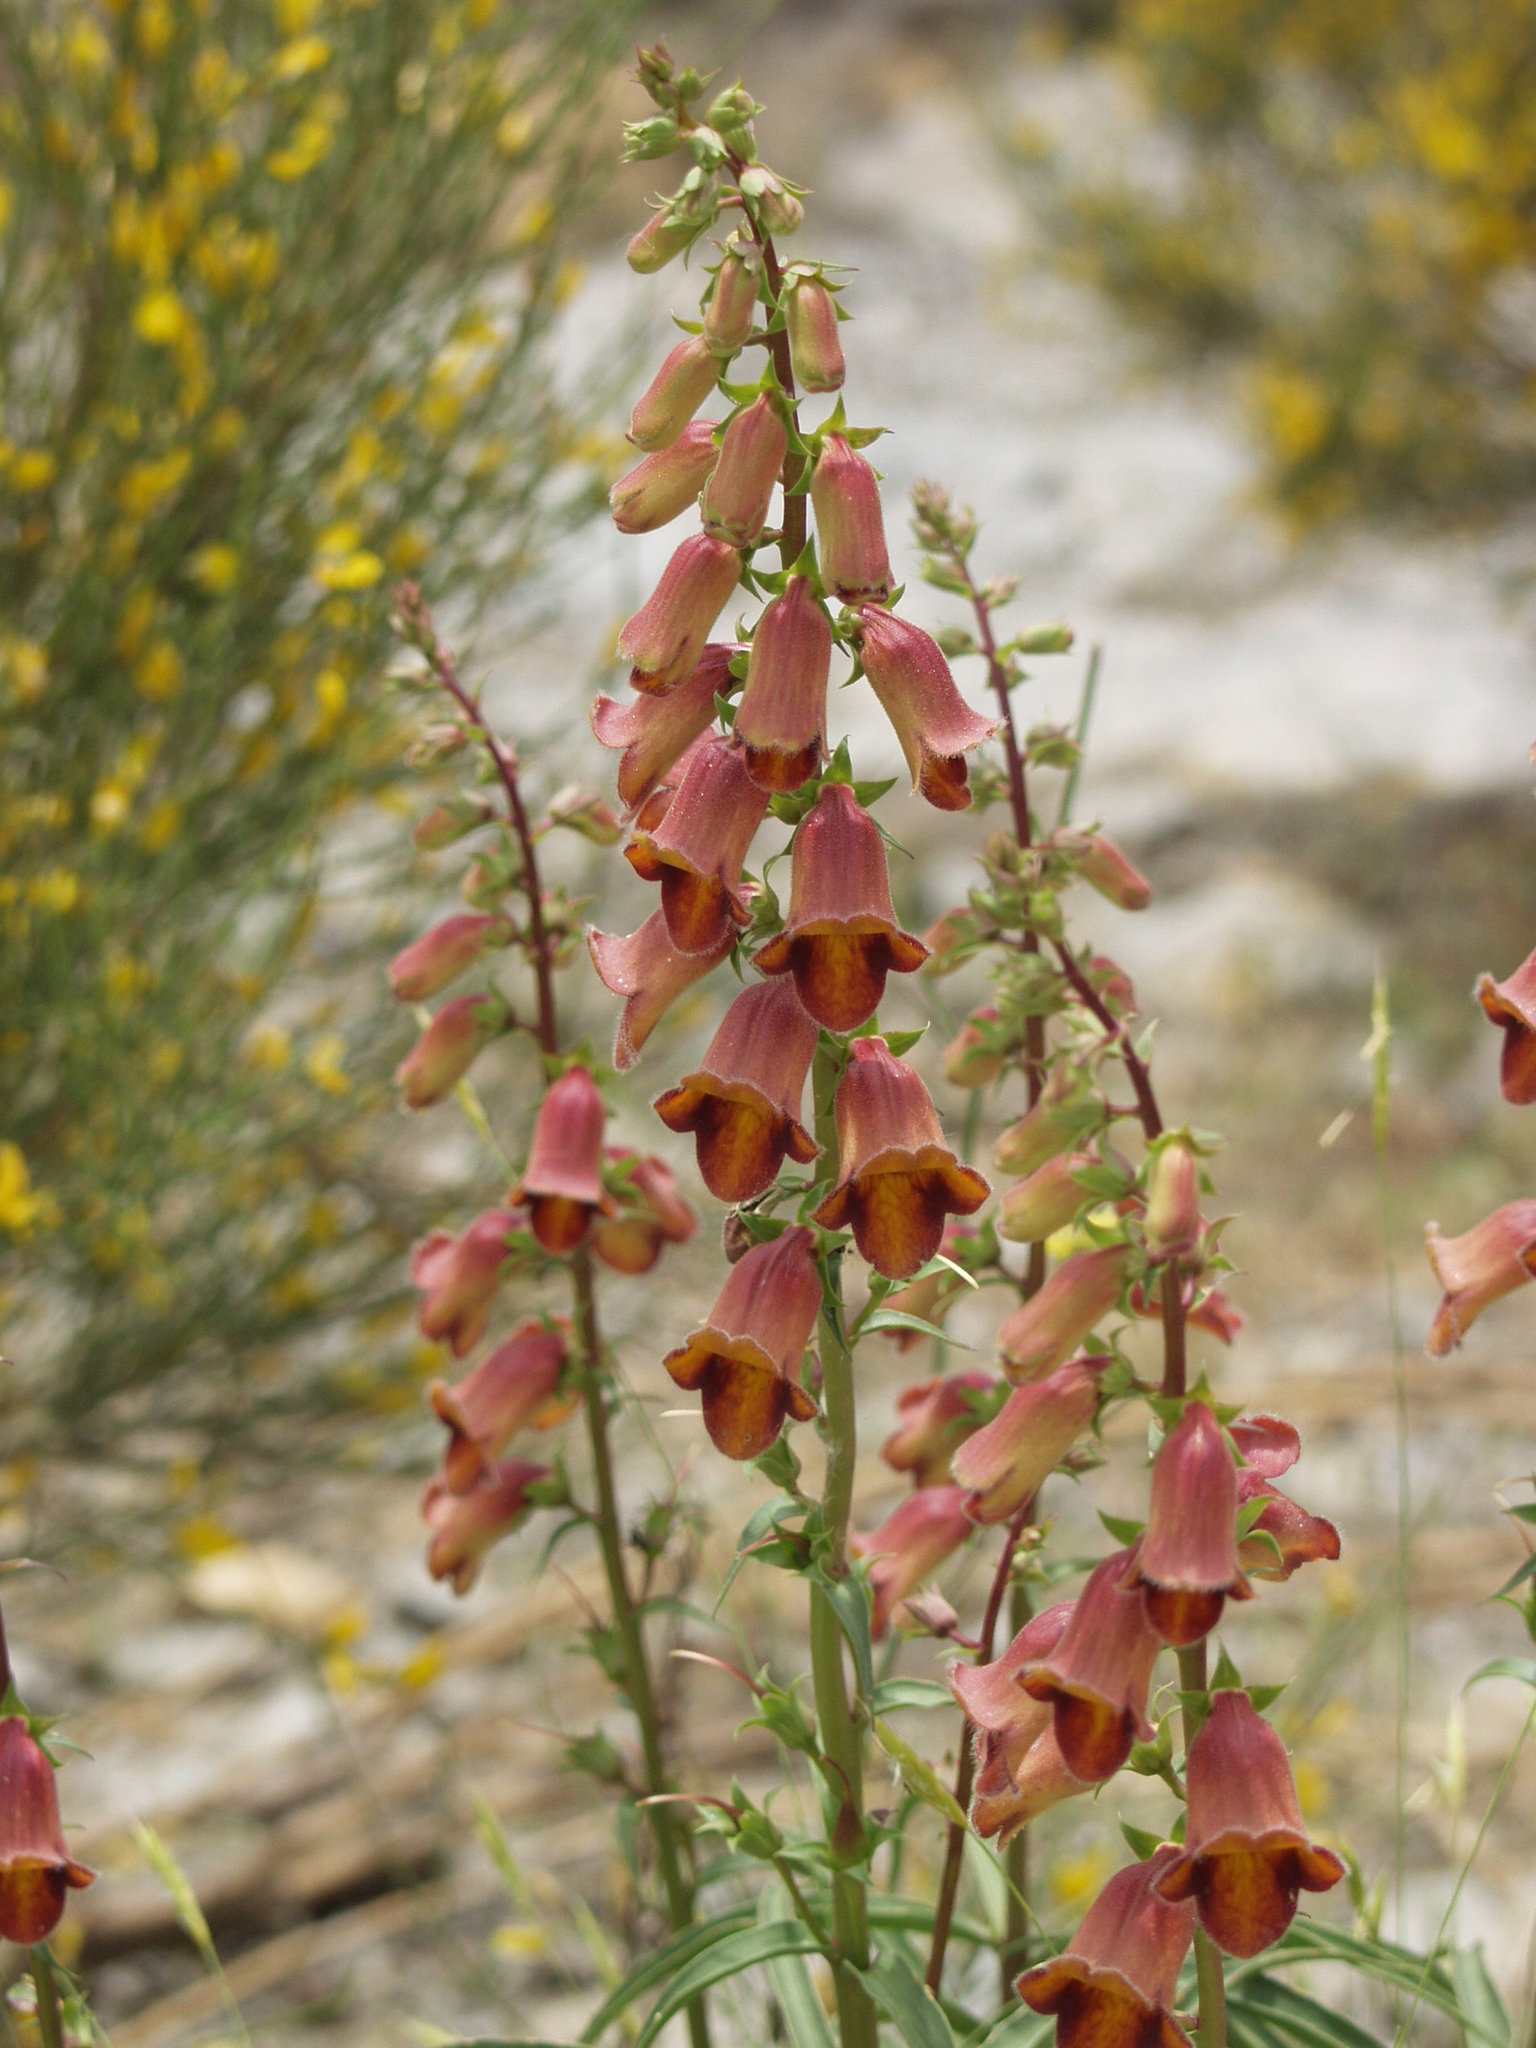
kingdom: Plantae
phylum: Tracheophyta
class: Magnoliopsida
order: Lamiales
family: Plantaginaceae
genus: Digitalis
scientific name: Digitalis obscura
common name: Willow-leaf foxglove
